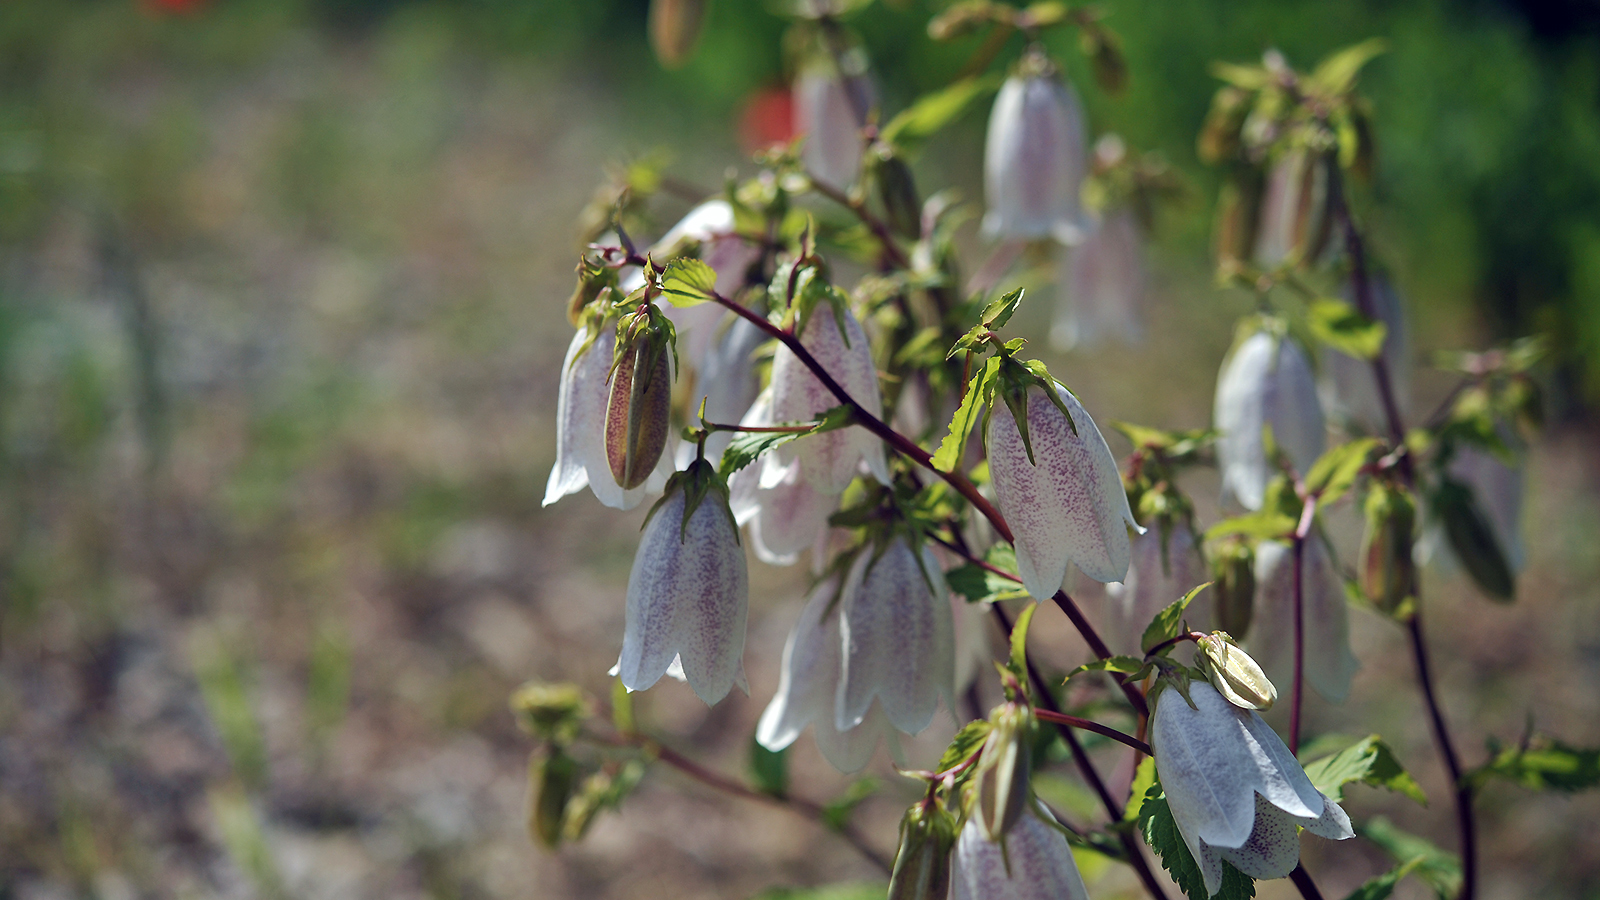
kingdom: Plantae
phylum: Tracheophyta
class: Magnoliopsida
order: Asterales
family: Campanulaceae
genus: Campanula
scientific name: Campanula punctata
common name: Spotted bellflower
